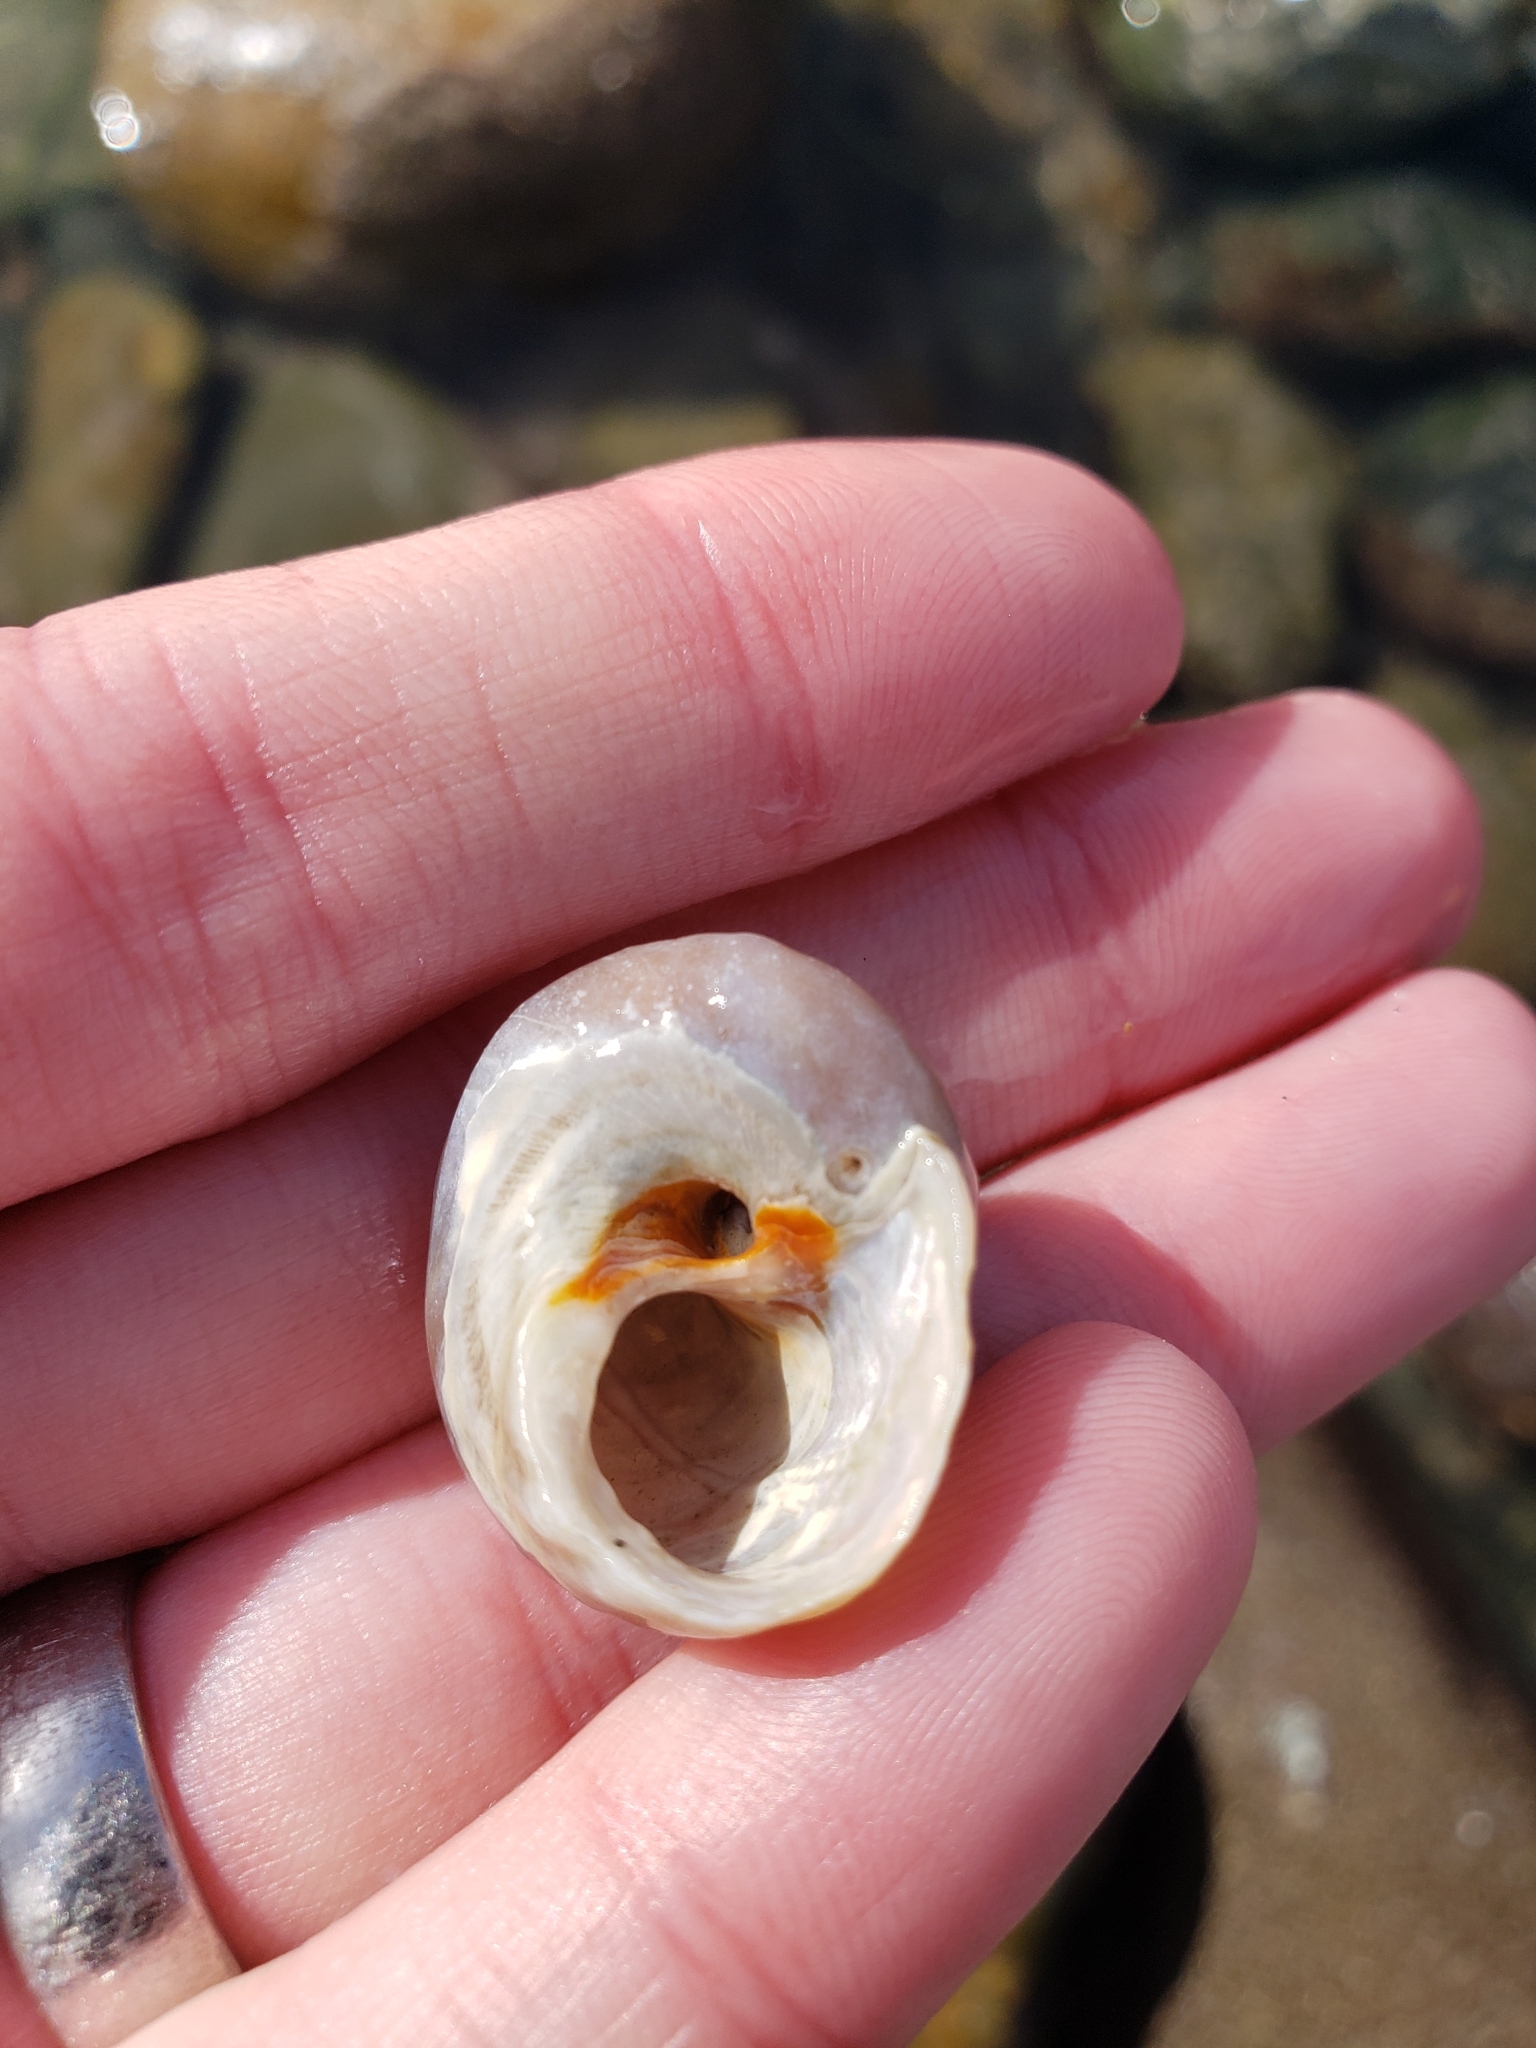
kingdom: Animalia
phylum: Mollusca
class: Gastropoda
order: Trochida
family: Tegulidae
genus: Tegula
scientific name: Tegula aureotincta
